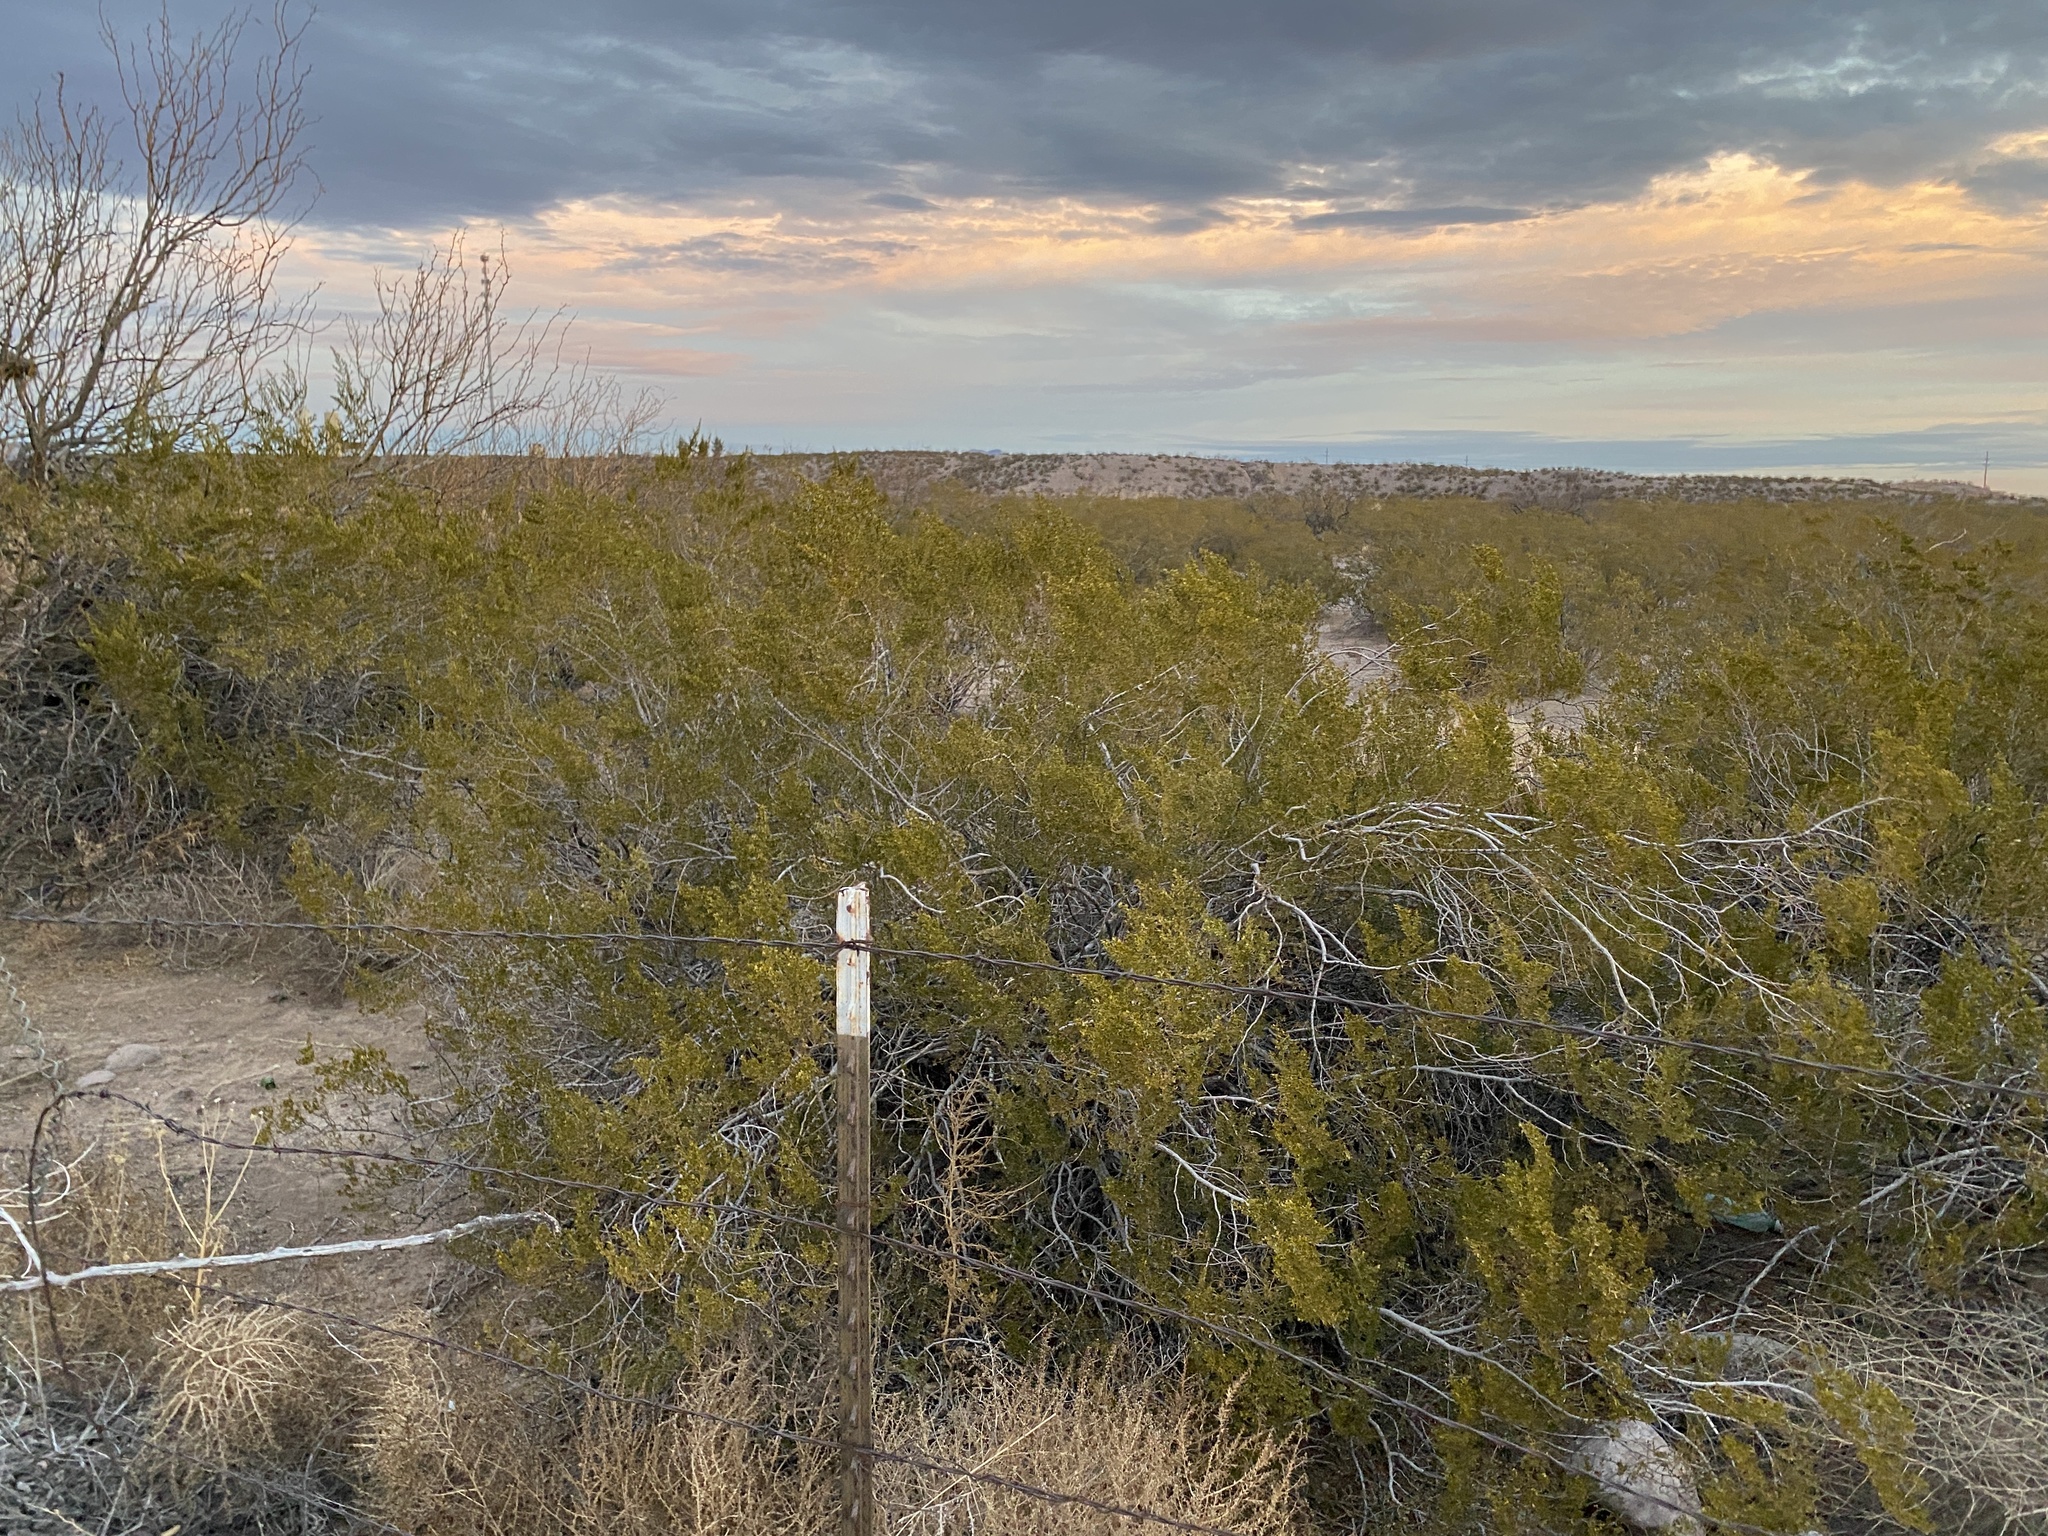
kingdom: Plantae
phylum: Tracheophyta
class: Magnoliopsida
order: Zygophyllales
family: Zygophyllaceae
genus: Larrea
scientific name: Larrea tridentata
